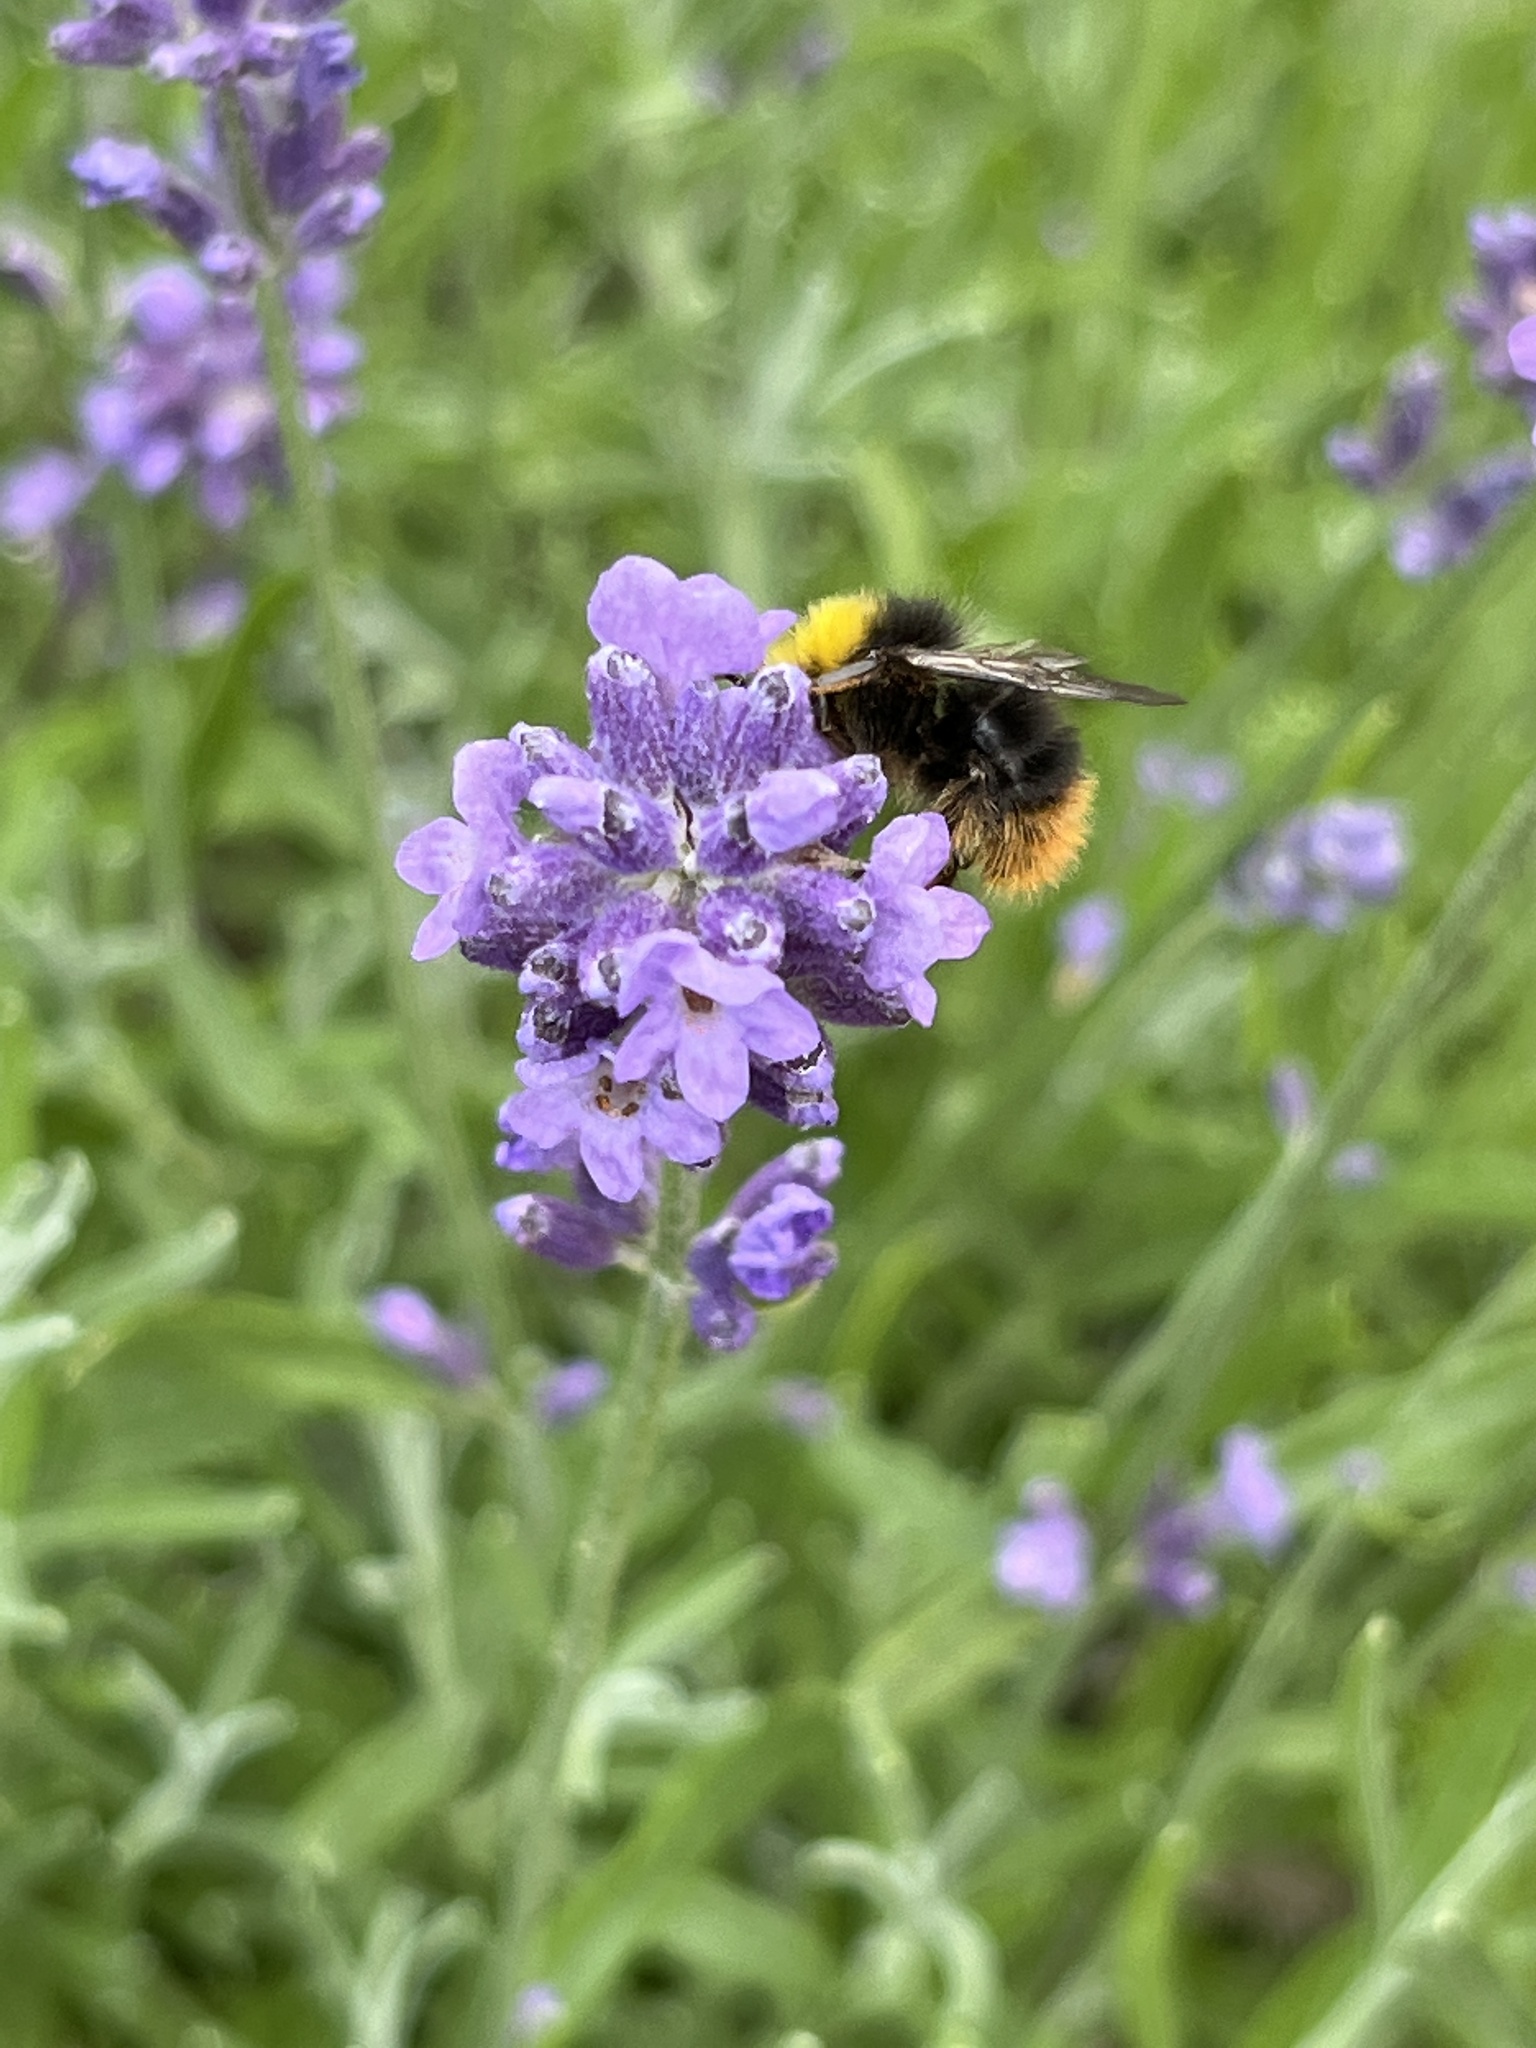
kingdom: Animalia
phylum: Arthropoda
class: Insecta
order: Hymenoptera
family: Apidae
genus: Bombus
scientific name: Bombus pratorum
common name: Early humble-bee
